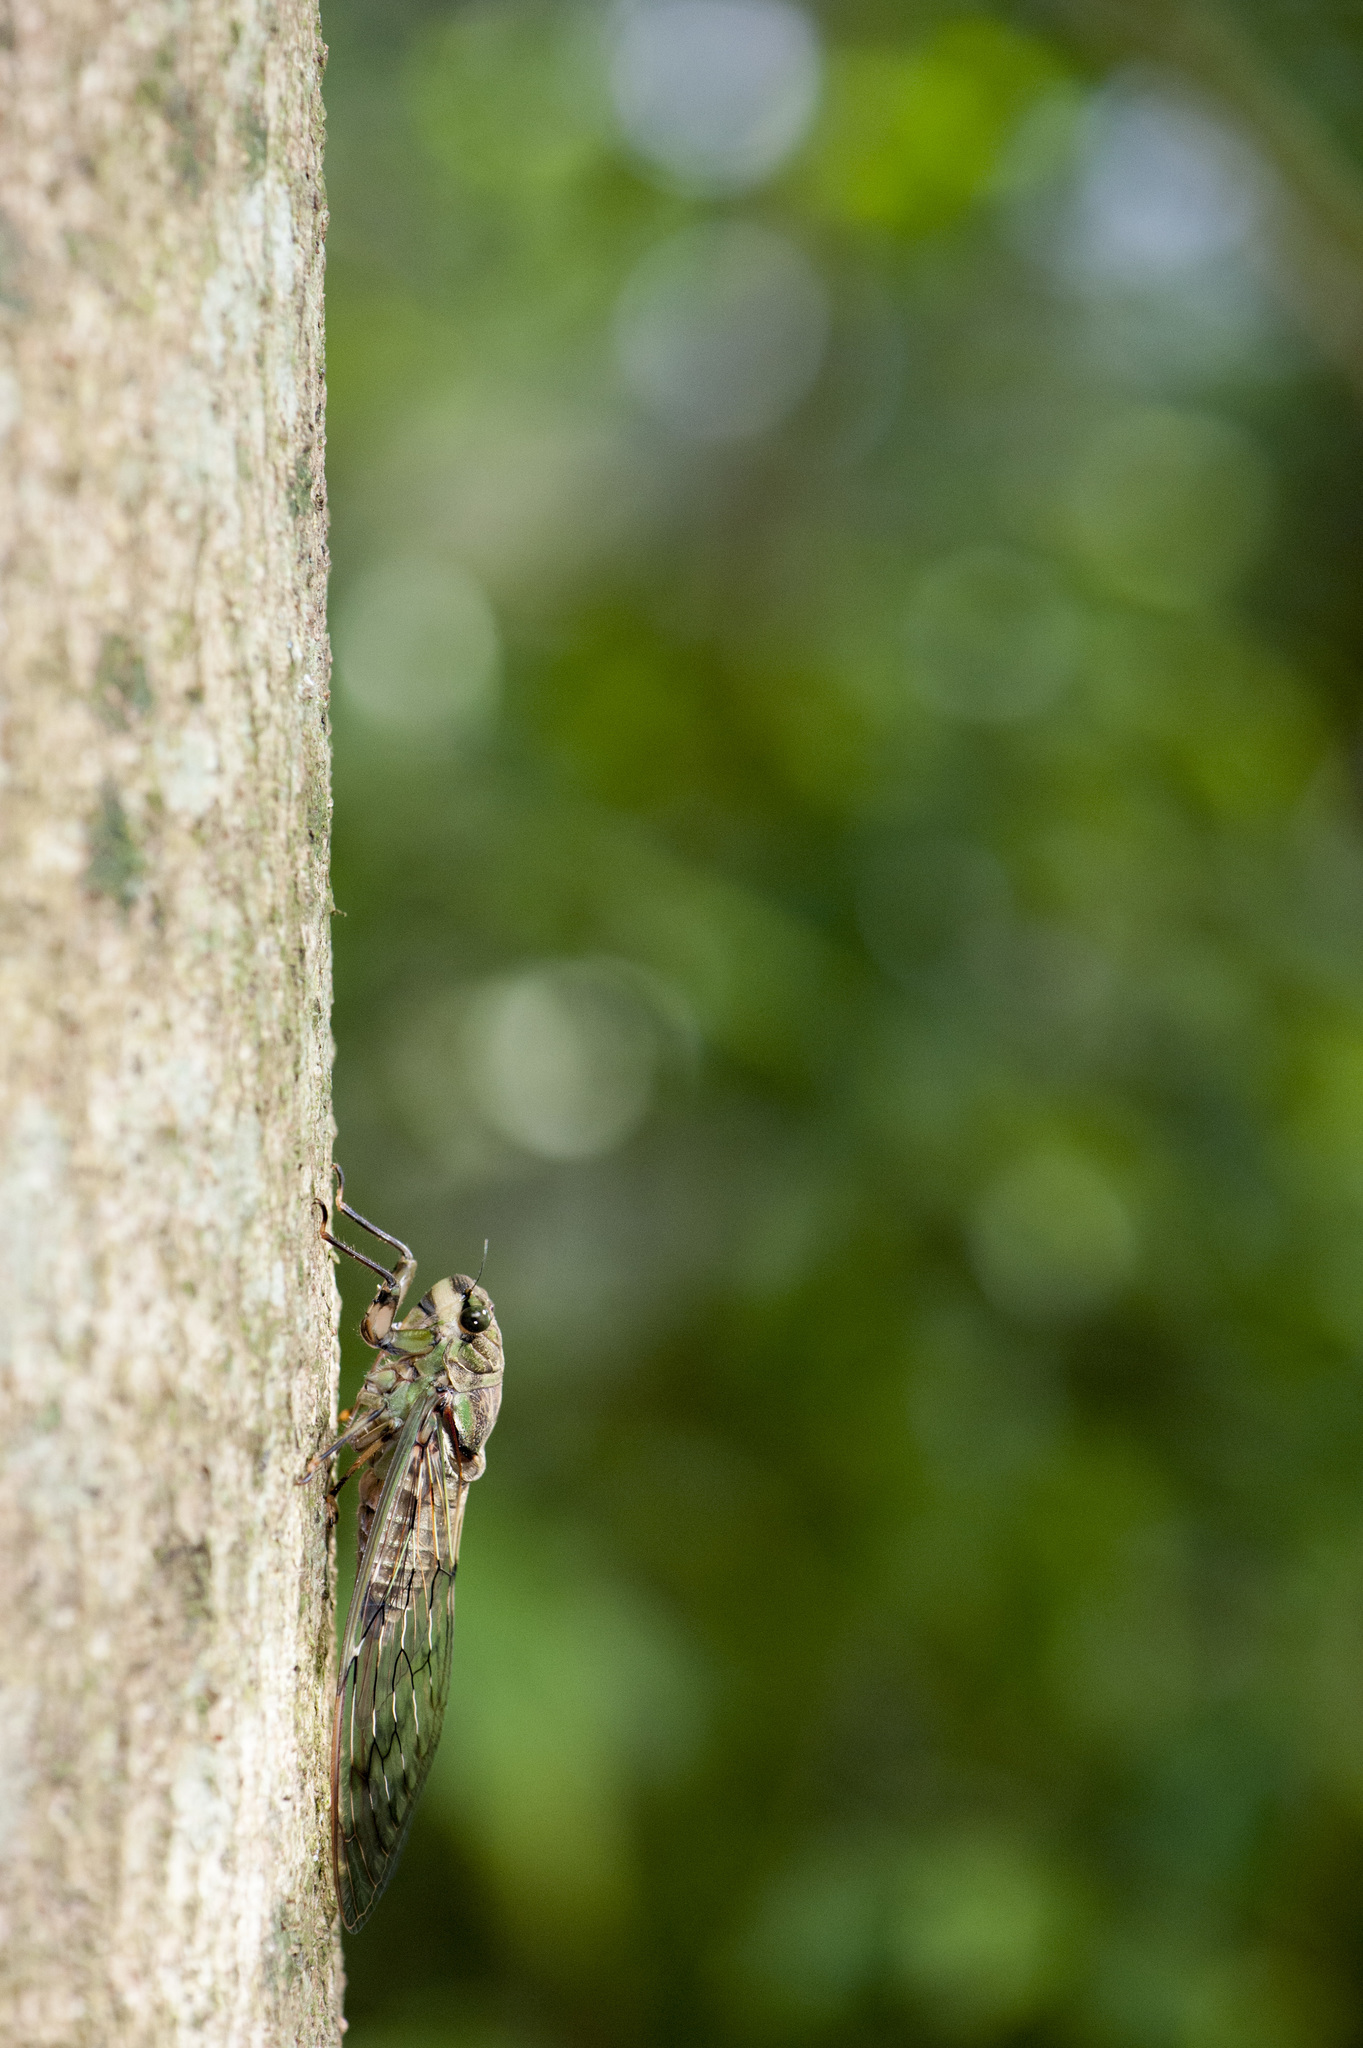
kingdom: Animalia
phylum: Arthropoda
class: Insecta
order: Hemiptera
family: Cicadidae
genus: Pomponia
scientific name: Pomponia yayeyamana
